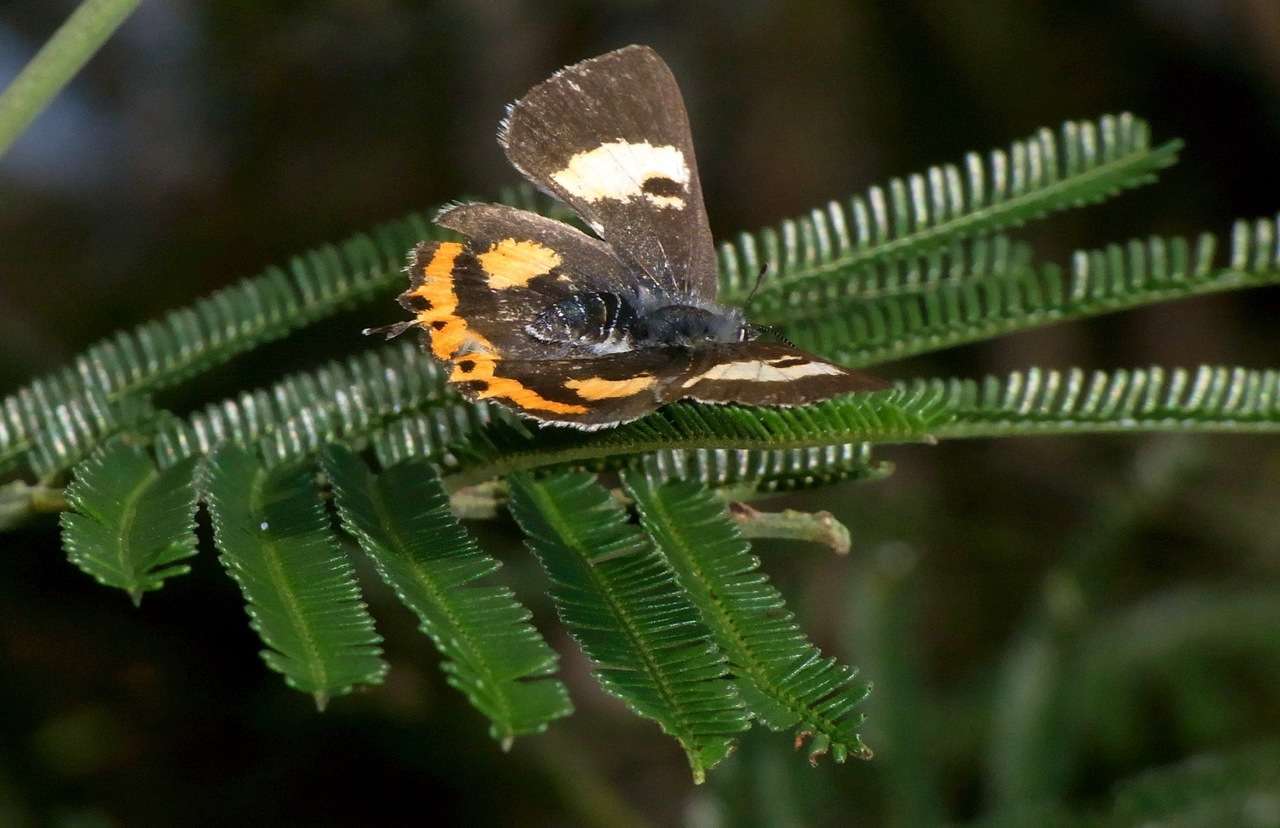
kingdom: Animalia
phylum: Arthropoda
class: Insecta
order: Lepidoptera
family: Lycaenidae
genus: Pseudalmenus
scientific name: Pseudalmenus chlorinda
